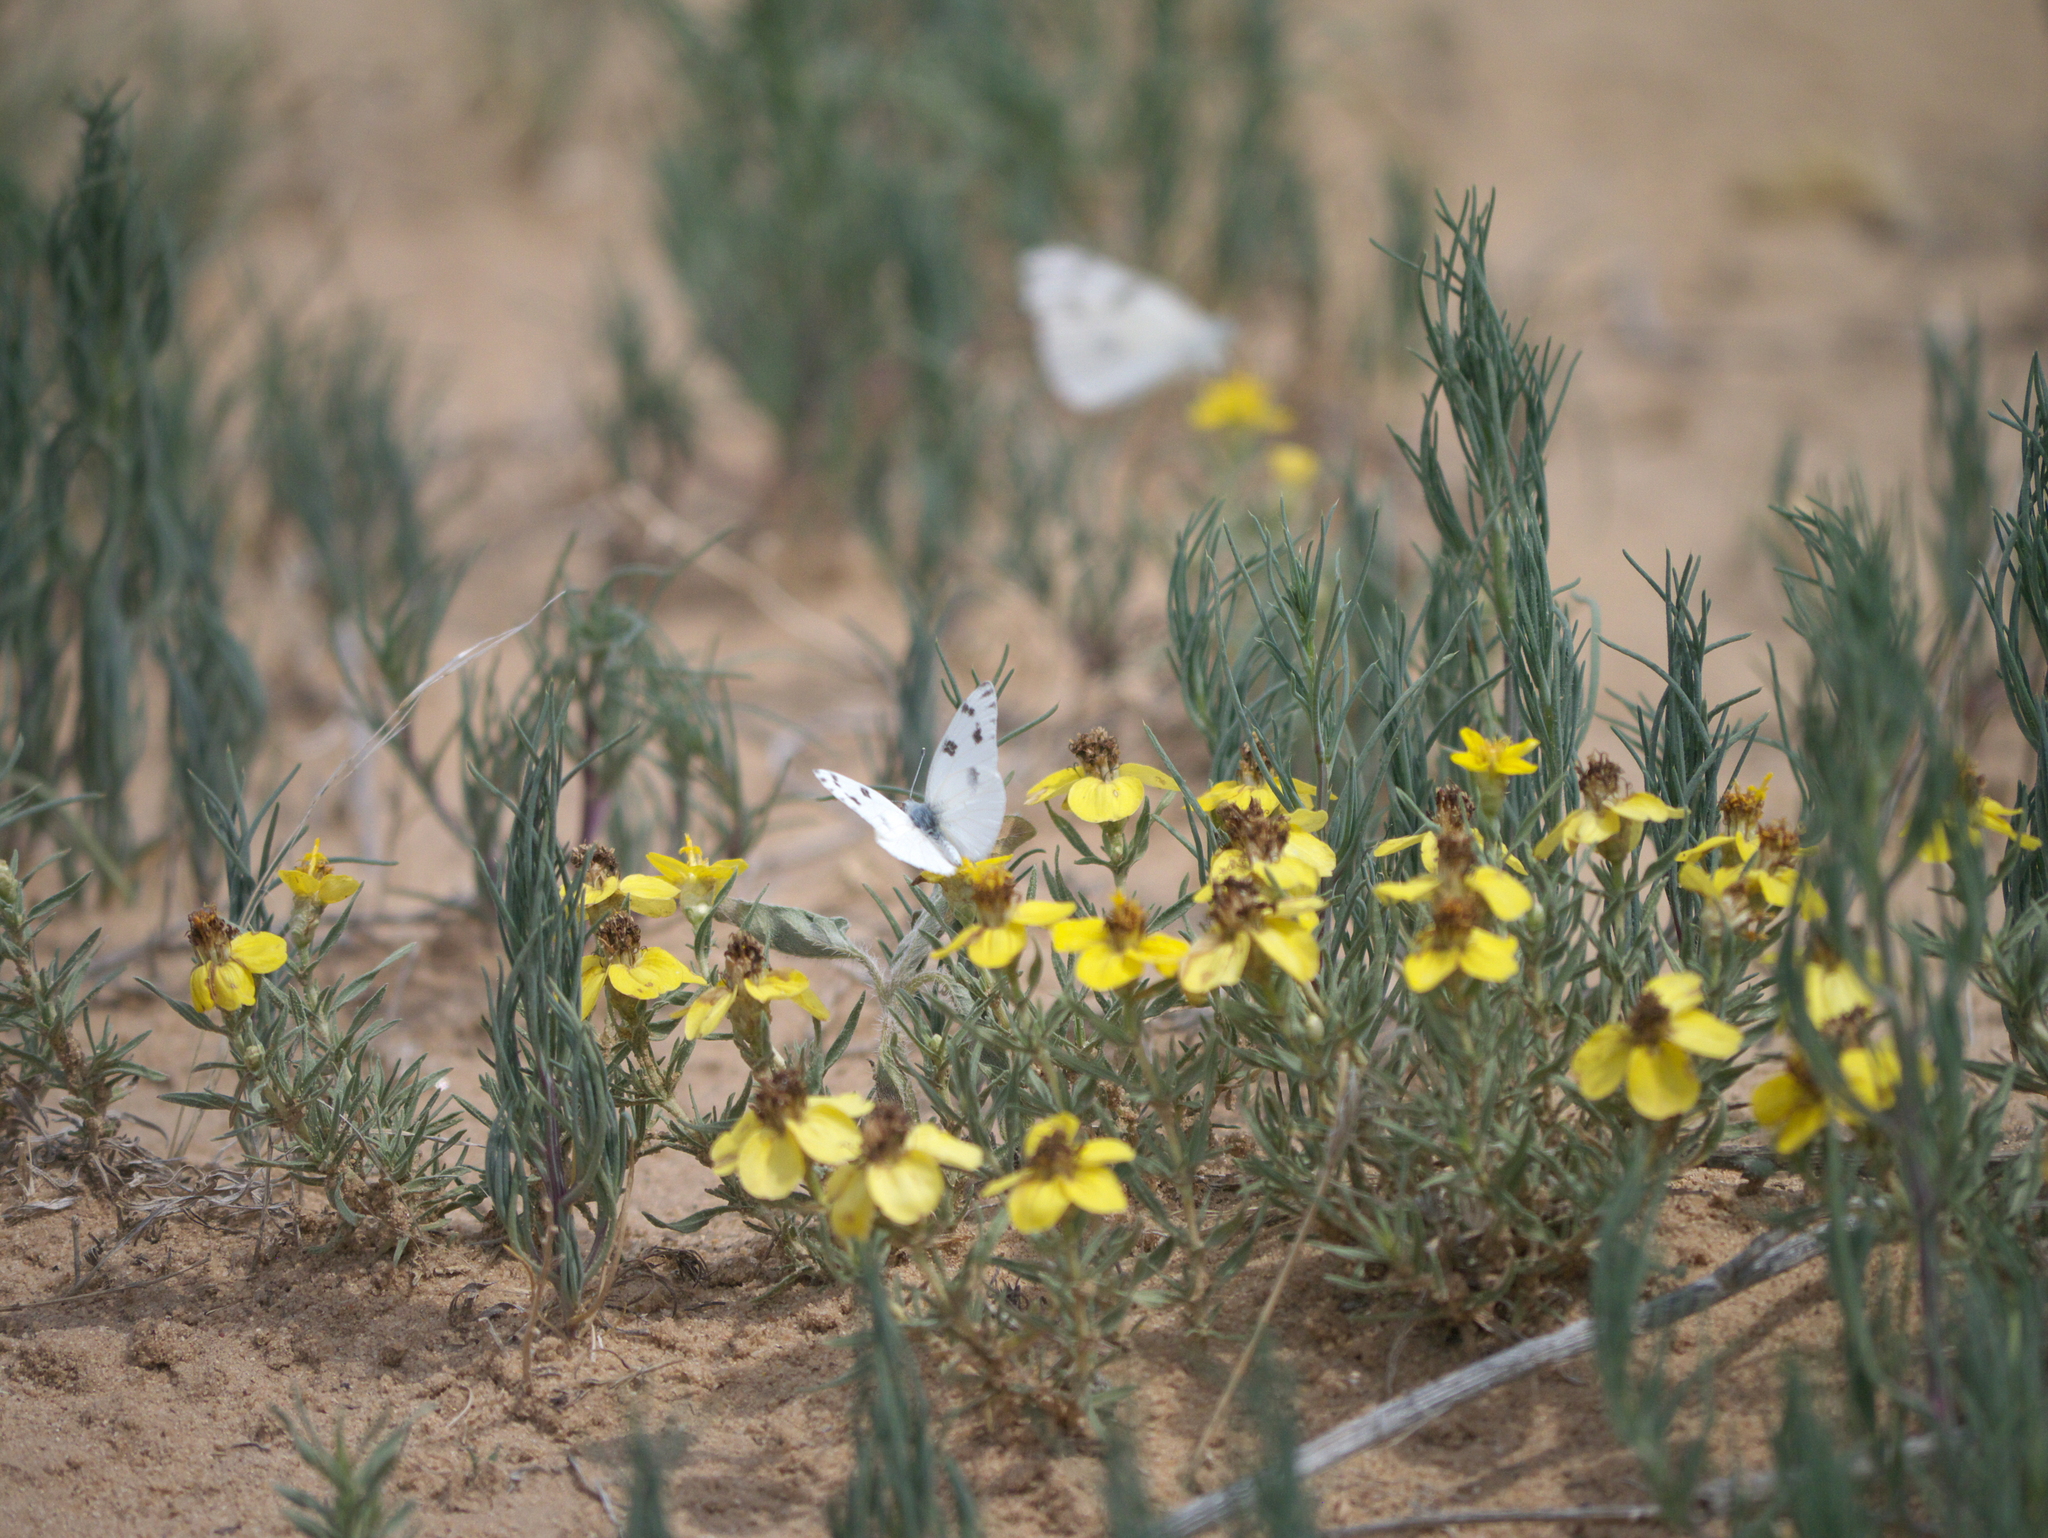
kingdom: Plantae
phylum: Tracheophyta
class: Magnoliopsida
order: Asterales
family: Asteraceae
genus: Zinnia
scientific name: Zinnia grandiflora
